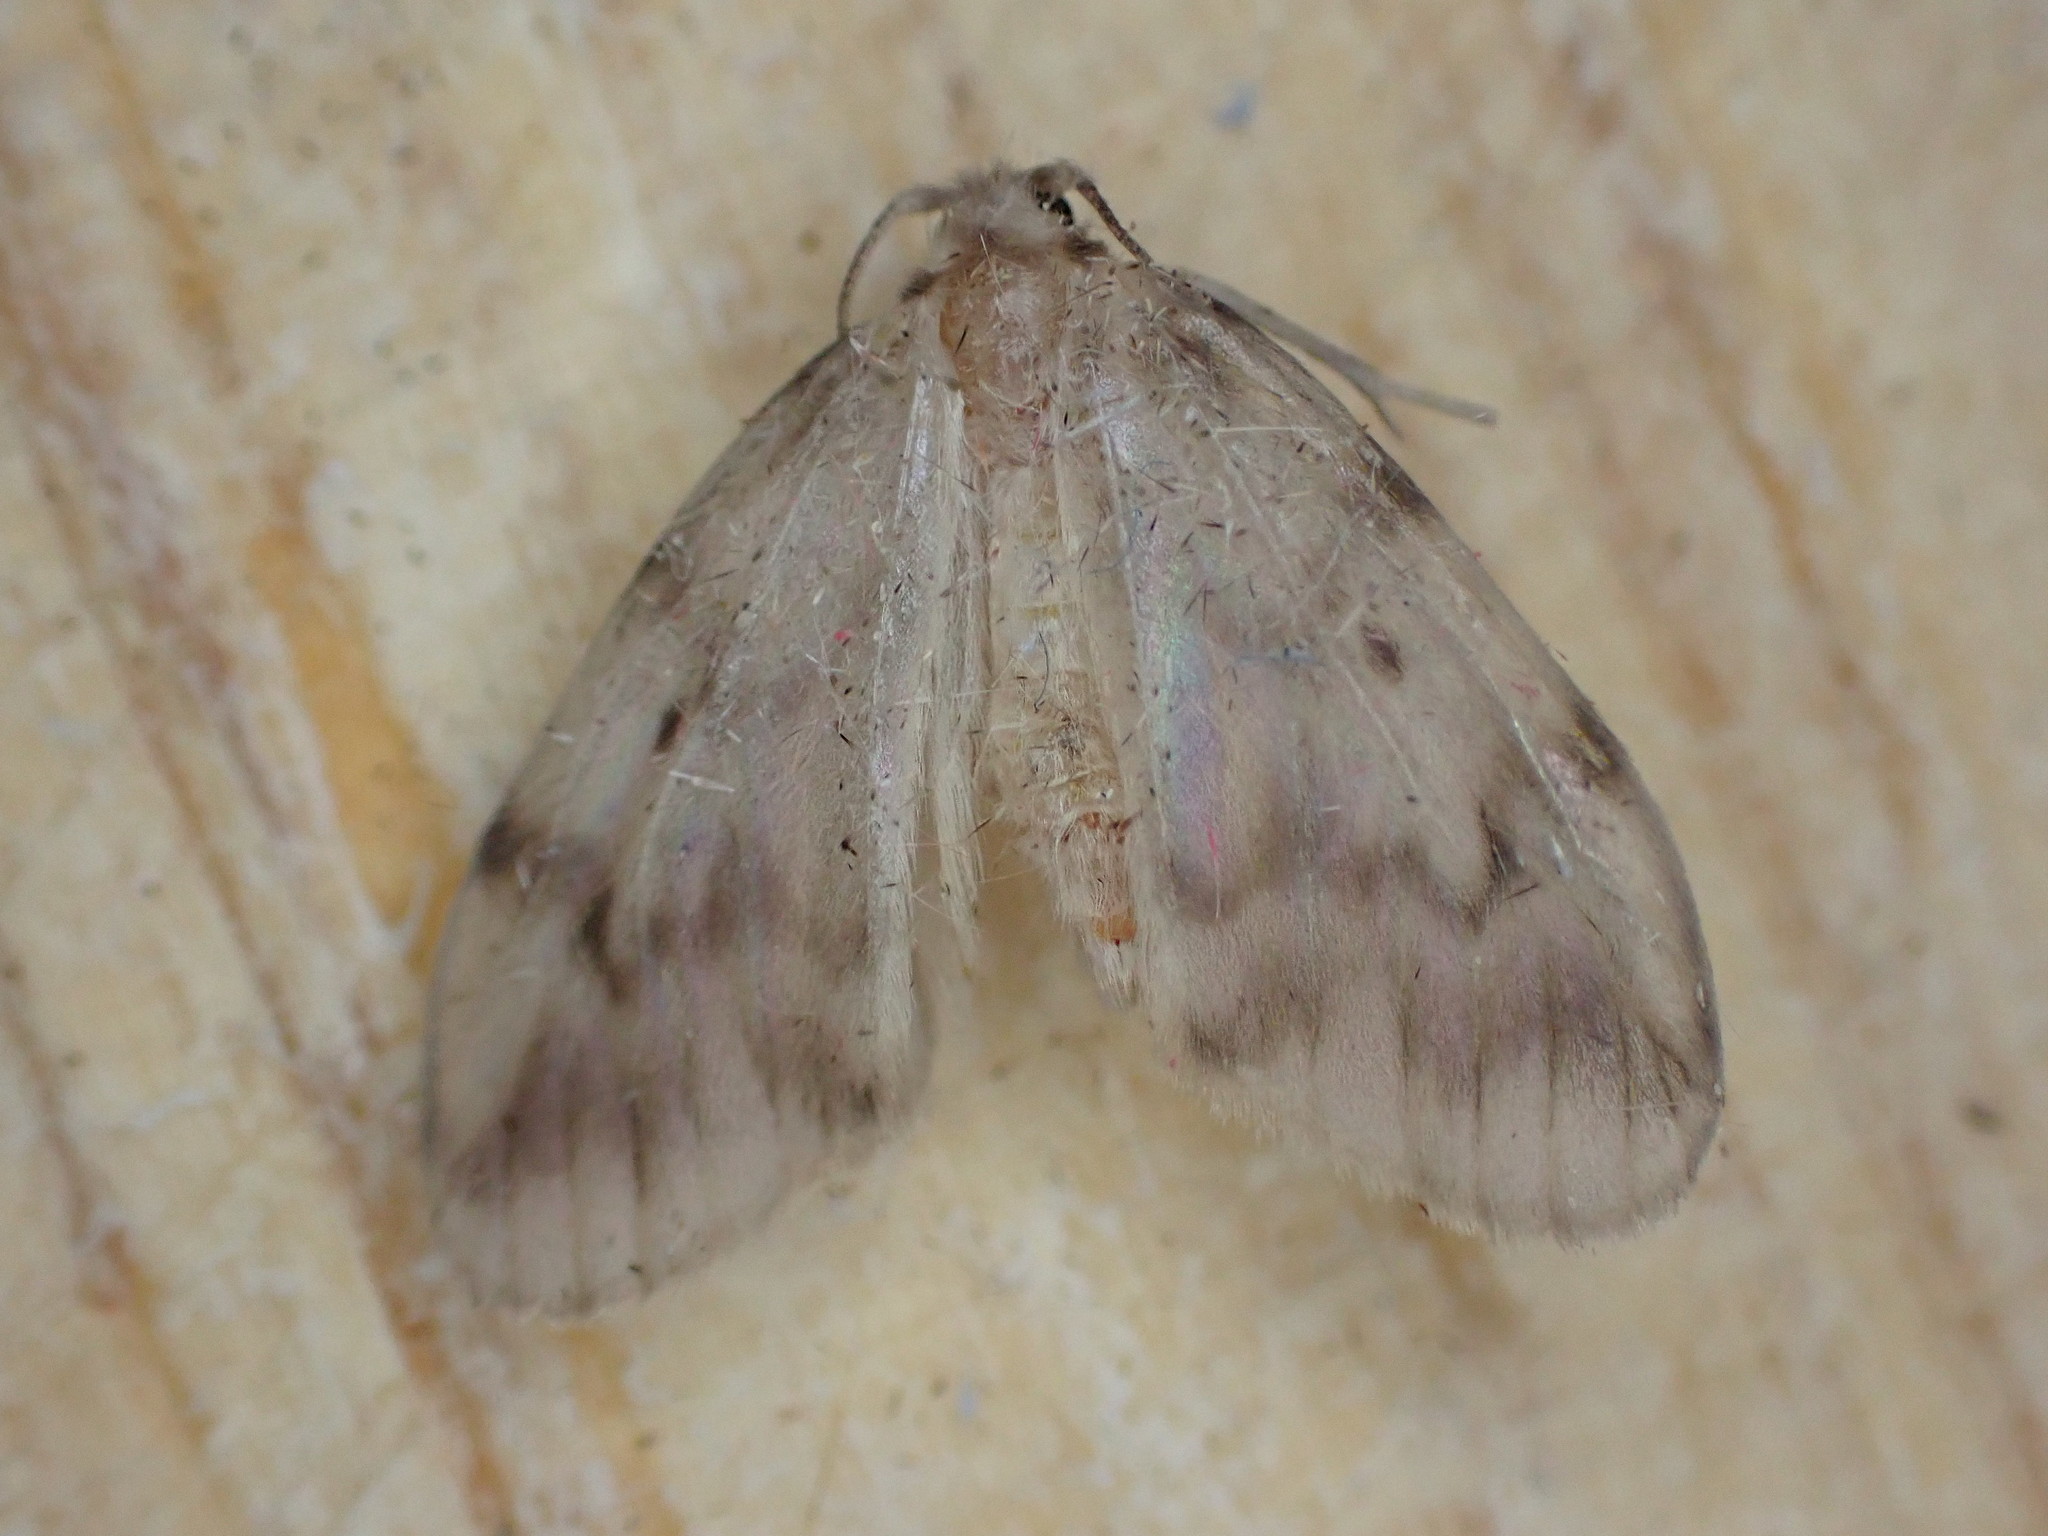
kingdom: Animalia
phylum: Arthropoda
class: Insecta
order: Lepidoptera
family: Erebidae
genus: Nudaria
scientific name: Nudaria mundana
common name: Muslin footman
